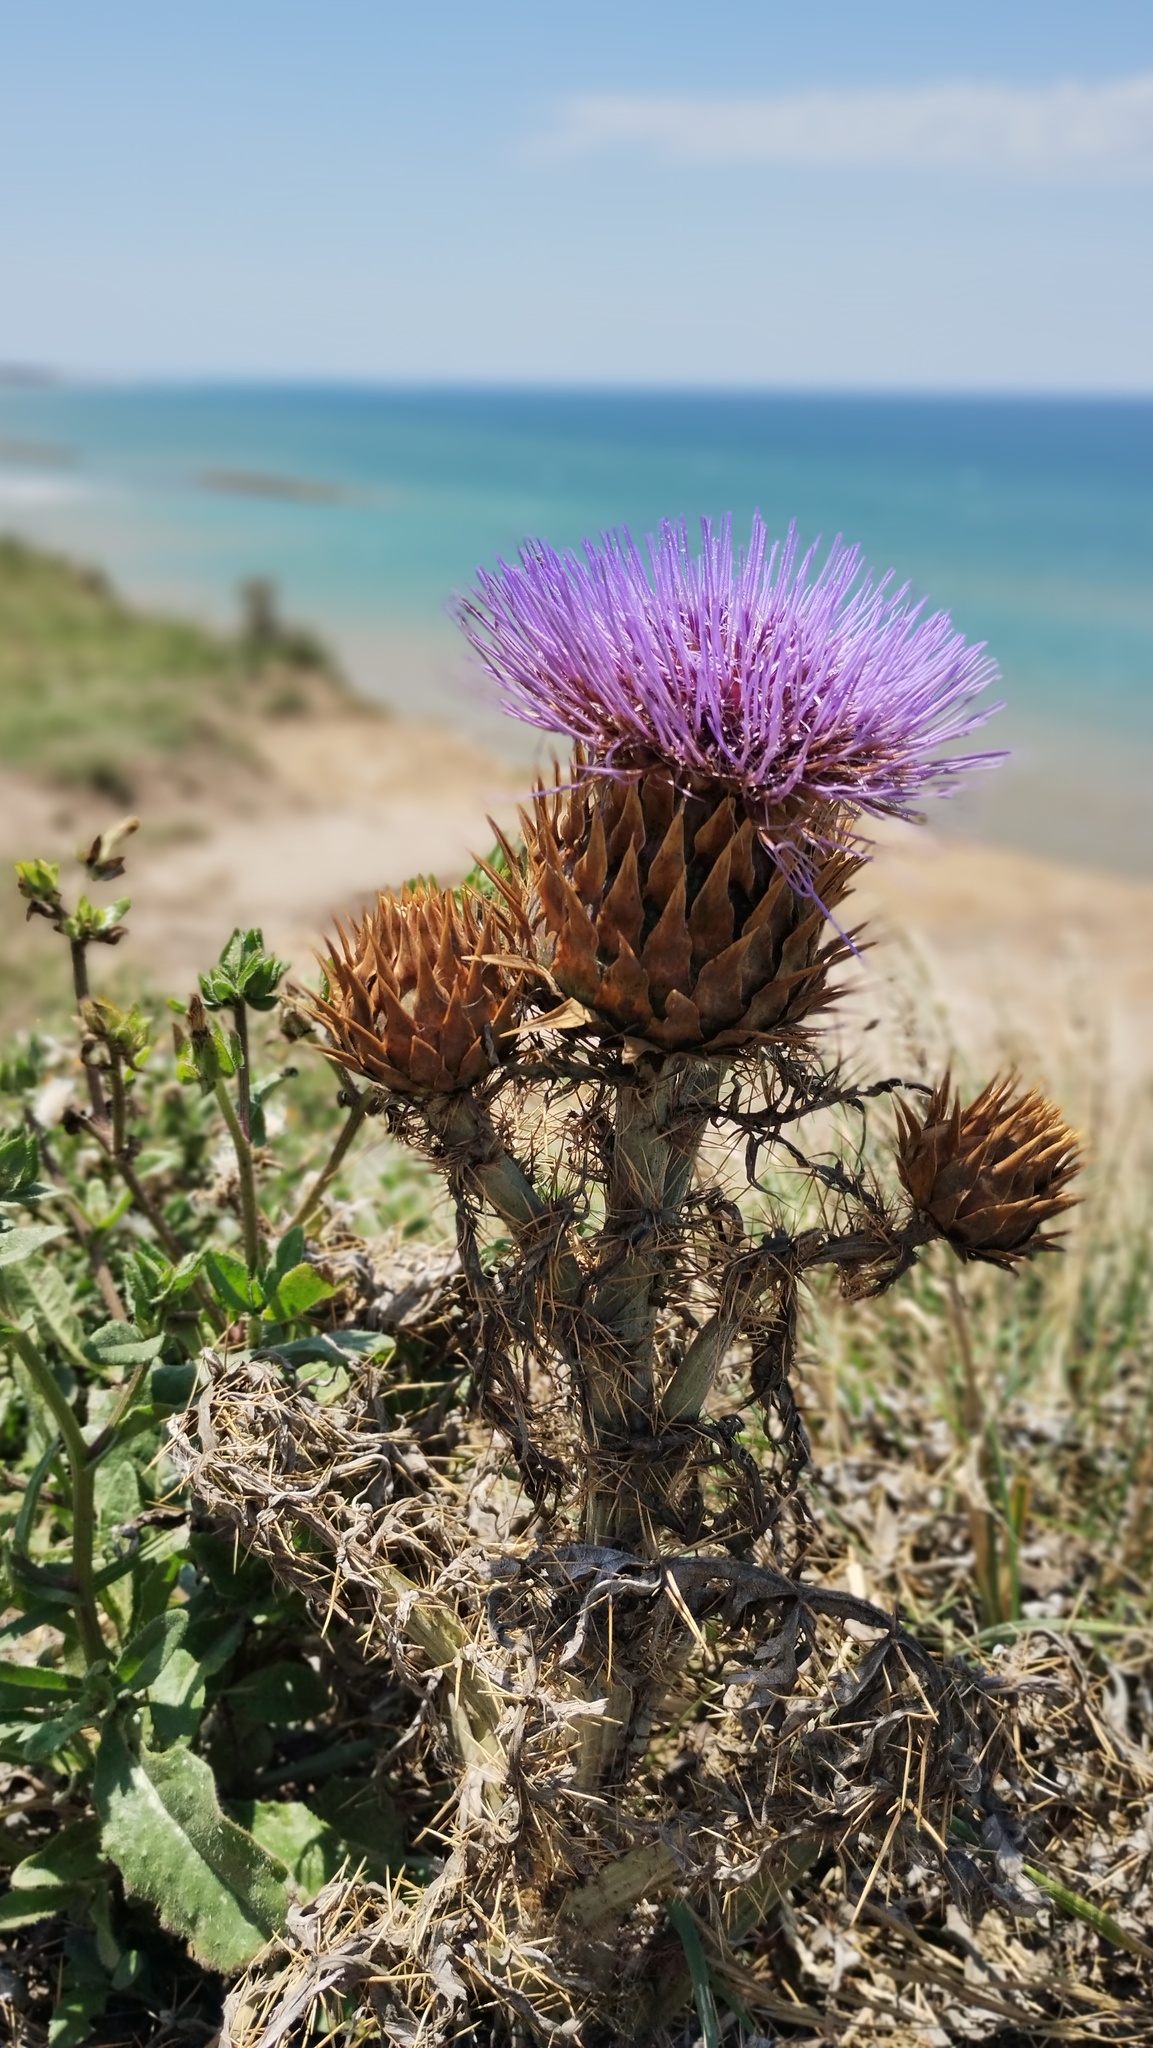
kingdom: Plantae
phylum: Tracheophyta
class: Magnoliopsida
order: Asterales
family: Asteraceae
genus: Cynara
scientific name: Cynara cardunculus
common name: Globe artichoke
